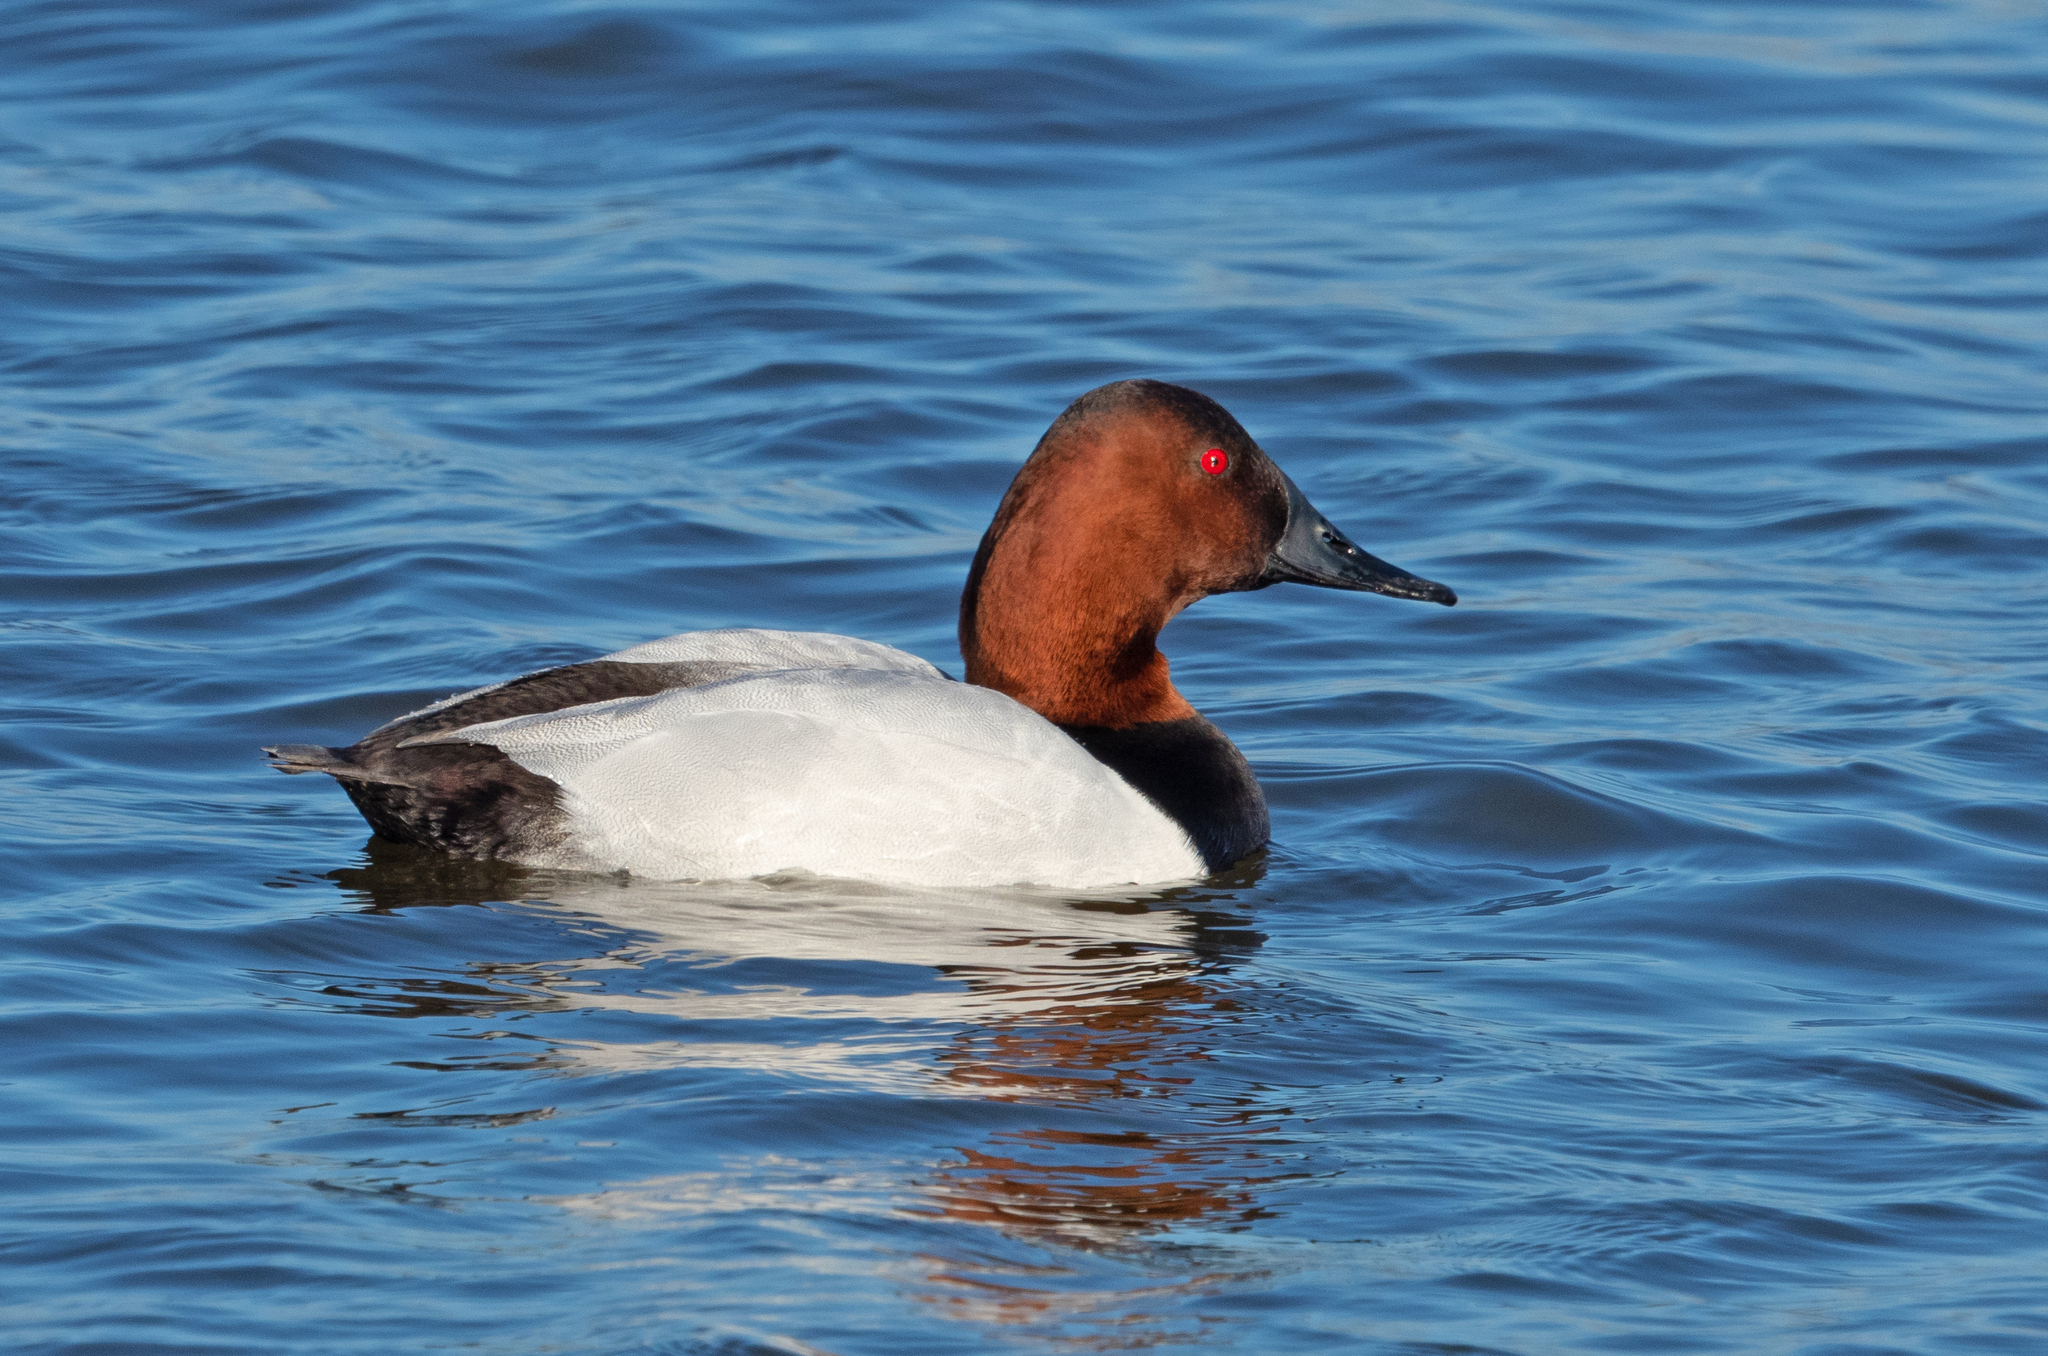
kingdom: Animalia
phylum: Chordata
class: Aves
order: Anseriformes
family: Anatidae
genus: Aythya
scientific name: Aythya valisineria
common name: Canvasback
